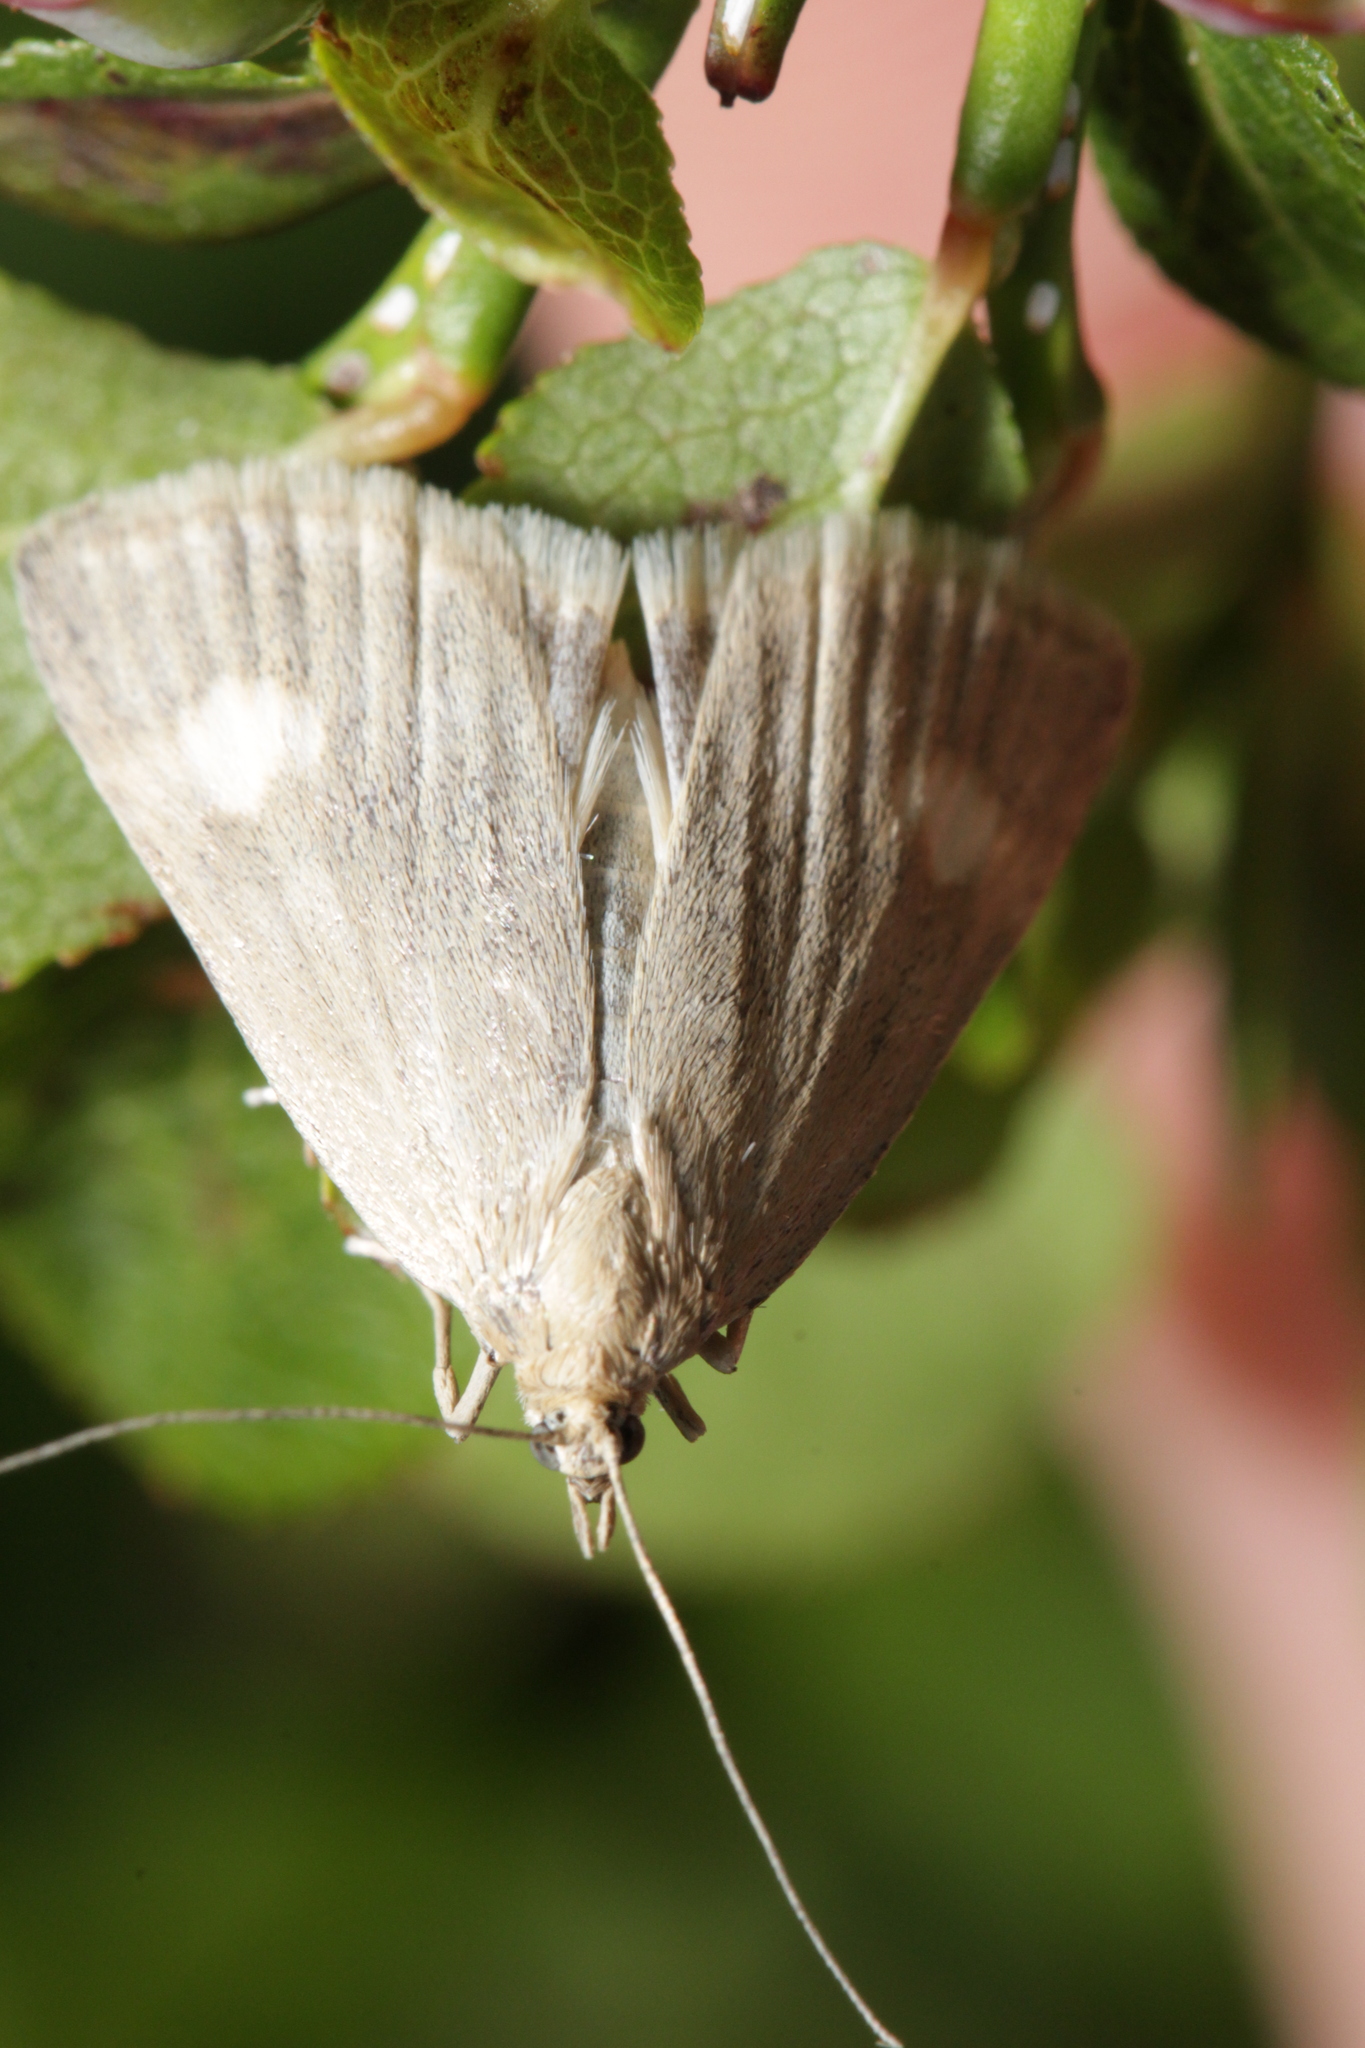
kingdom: Animalia
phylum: Arthropoda
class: Insecta
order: Lepidoptera
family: Crambidae
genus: Pyrausta
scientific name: Pyrausta alpinalis
